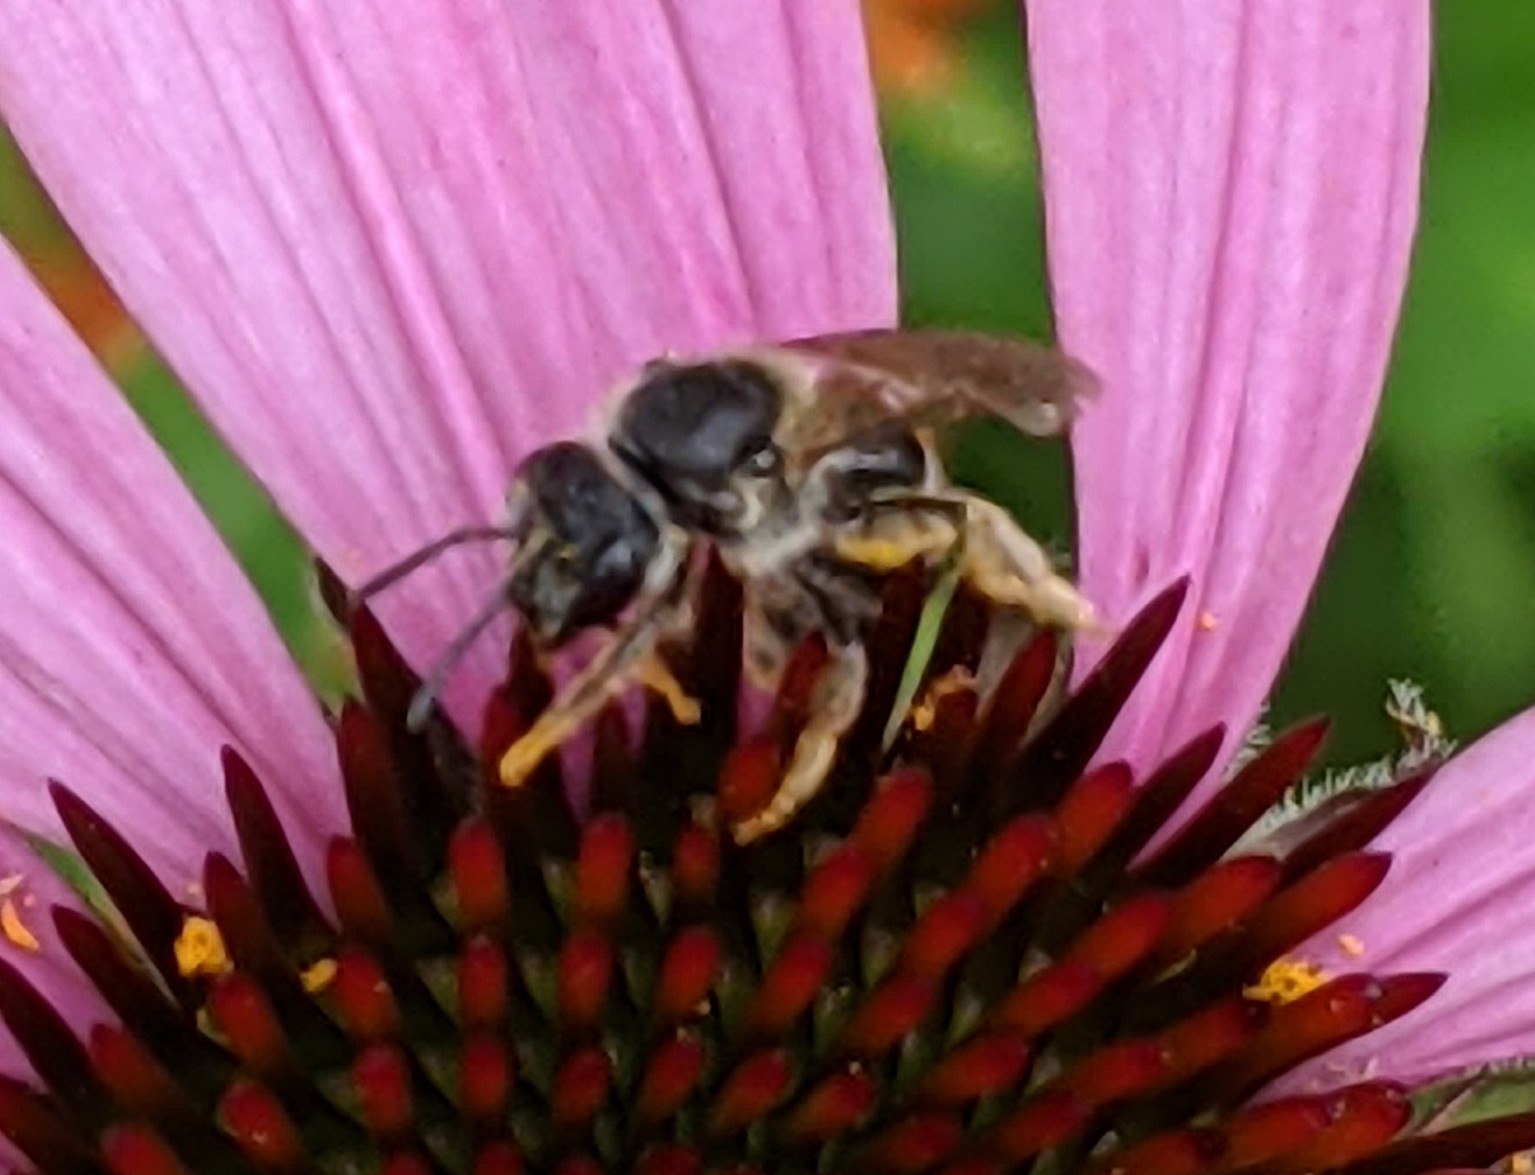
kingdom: Animalia
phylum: Arthropoda
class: Insecta
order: Hymenoptera
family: Halictidae
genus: Halictus
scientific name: Halictus rubicundus
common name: Orange-legged furrow bee
